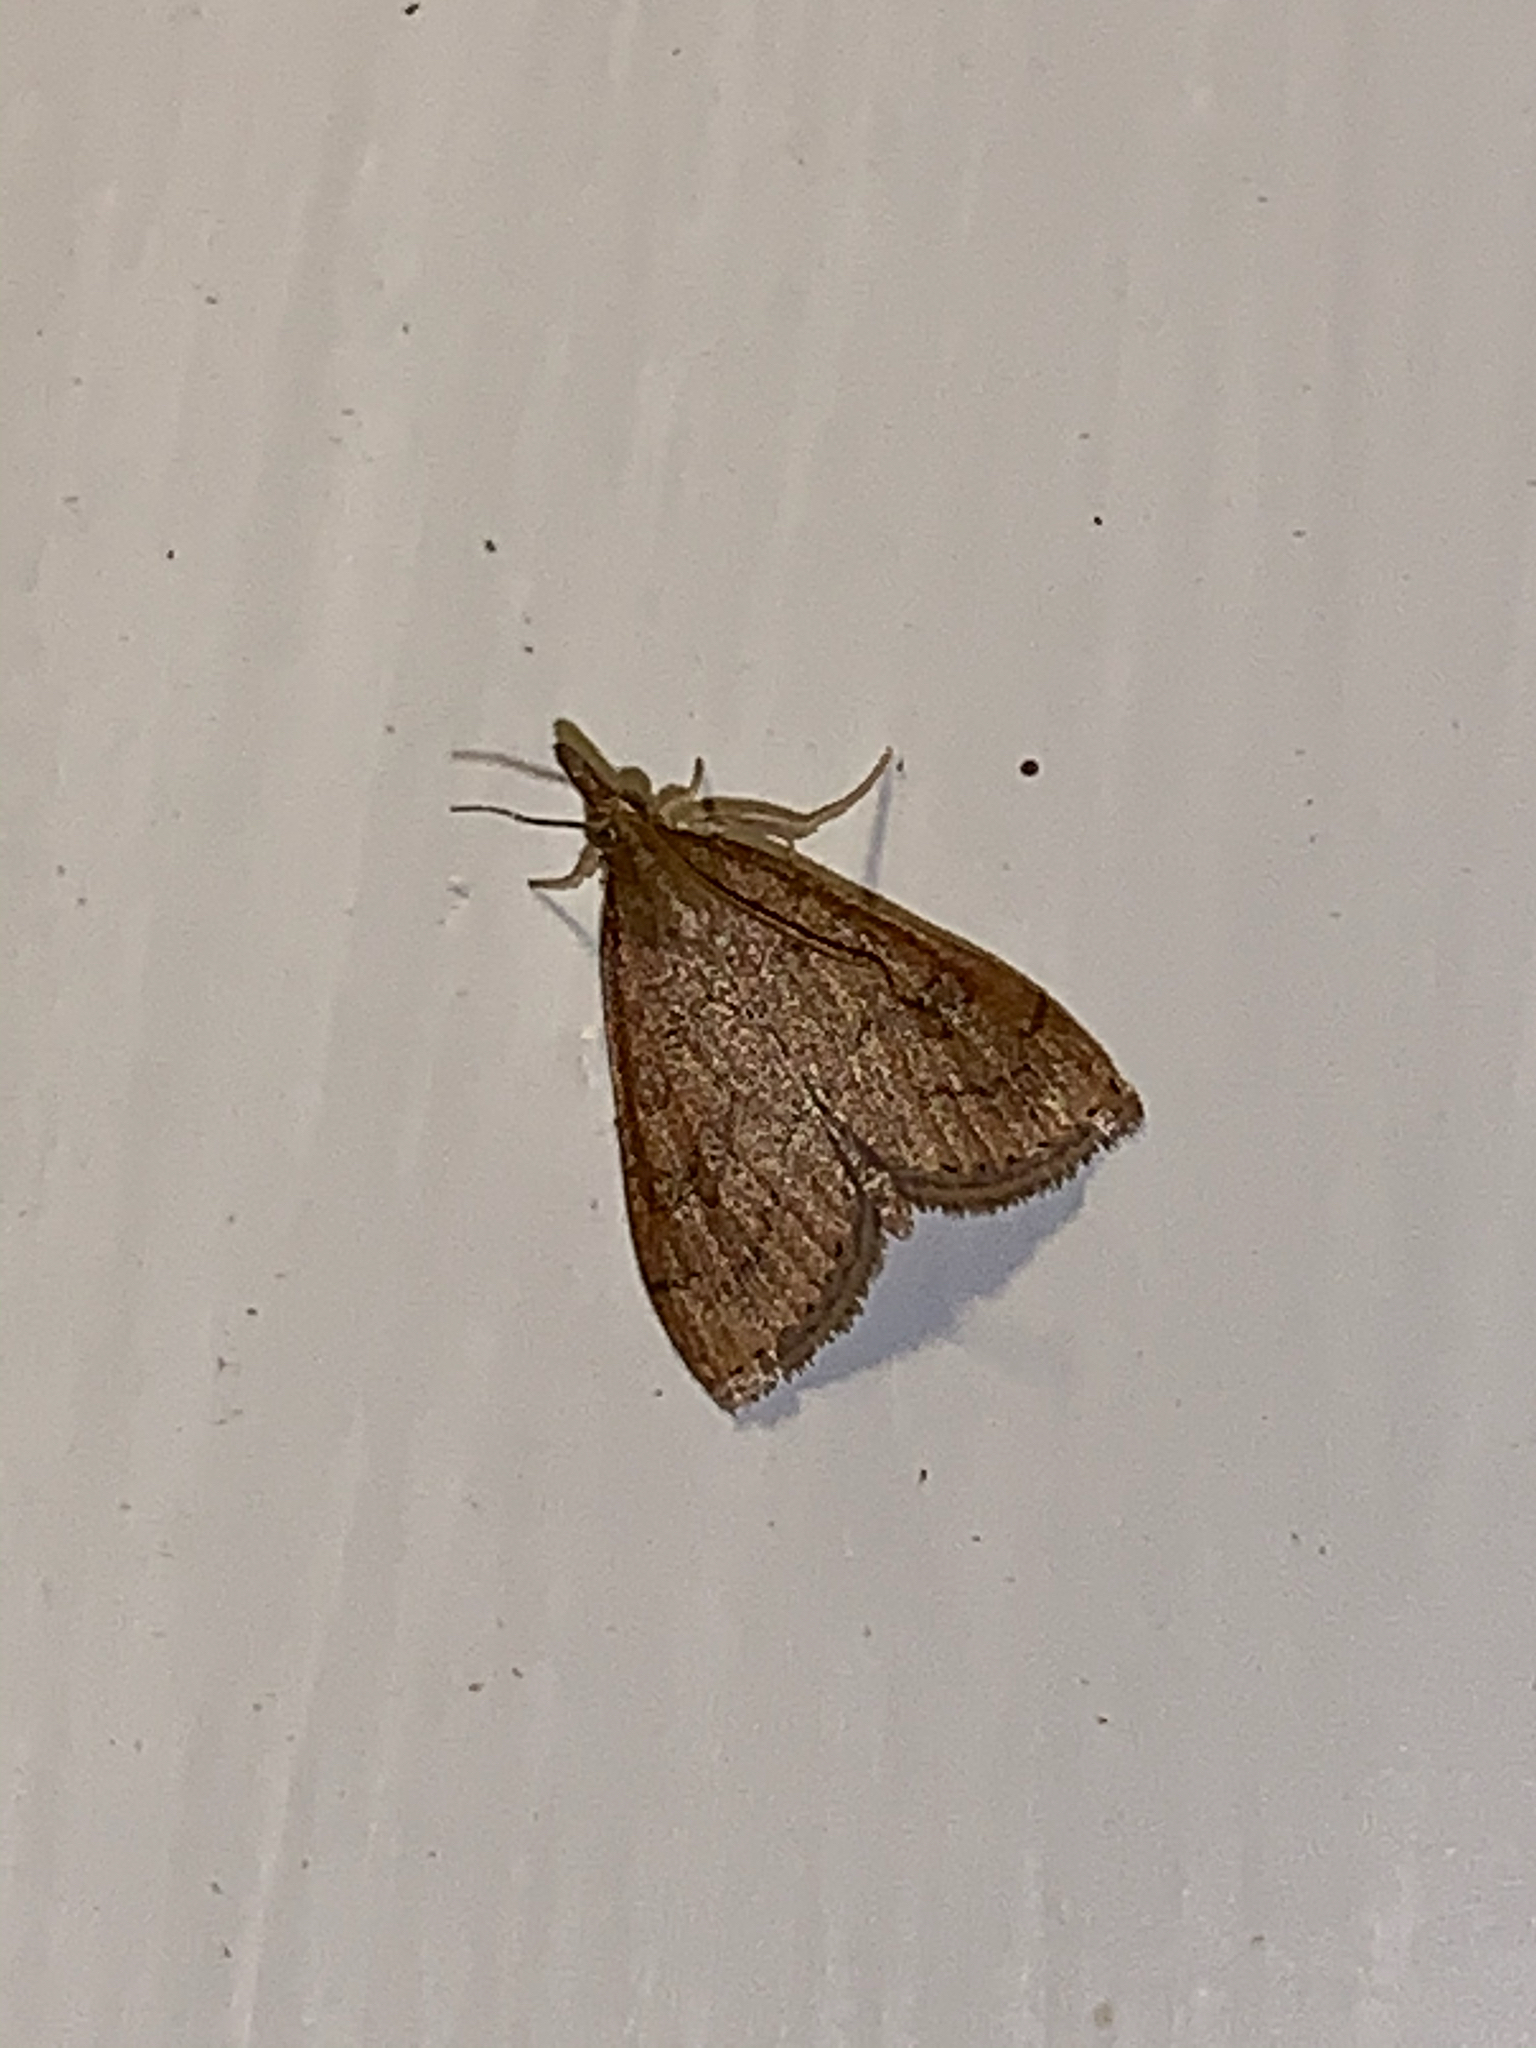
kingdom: Animalia
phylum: Arthropoda
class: Insecta
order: Lepidoptera
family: Crambidae
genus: Udea
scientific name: Udea rubigalis
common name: Celery leaftier moth
